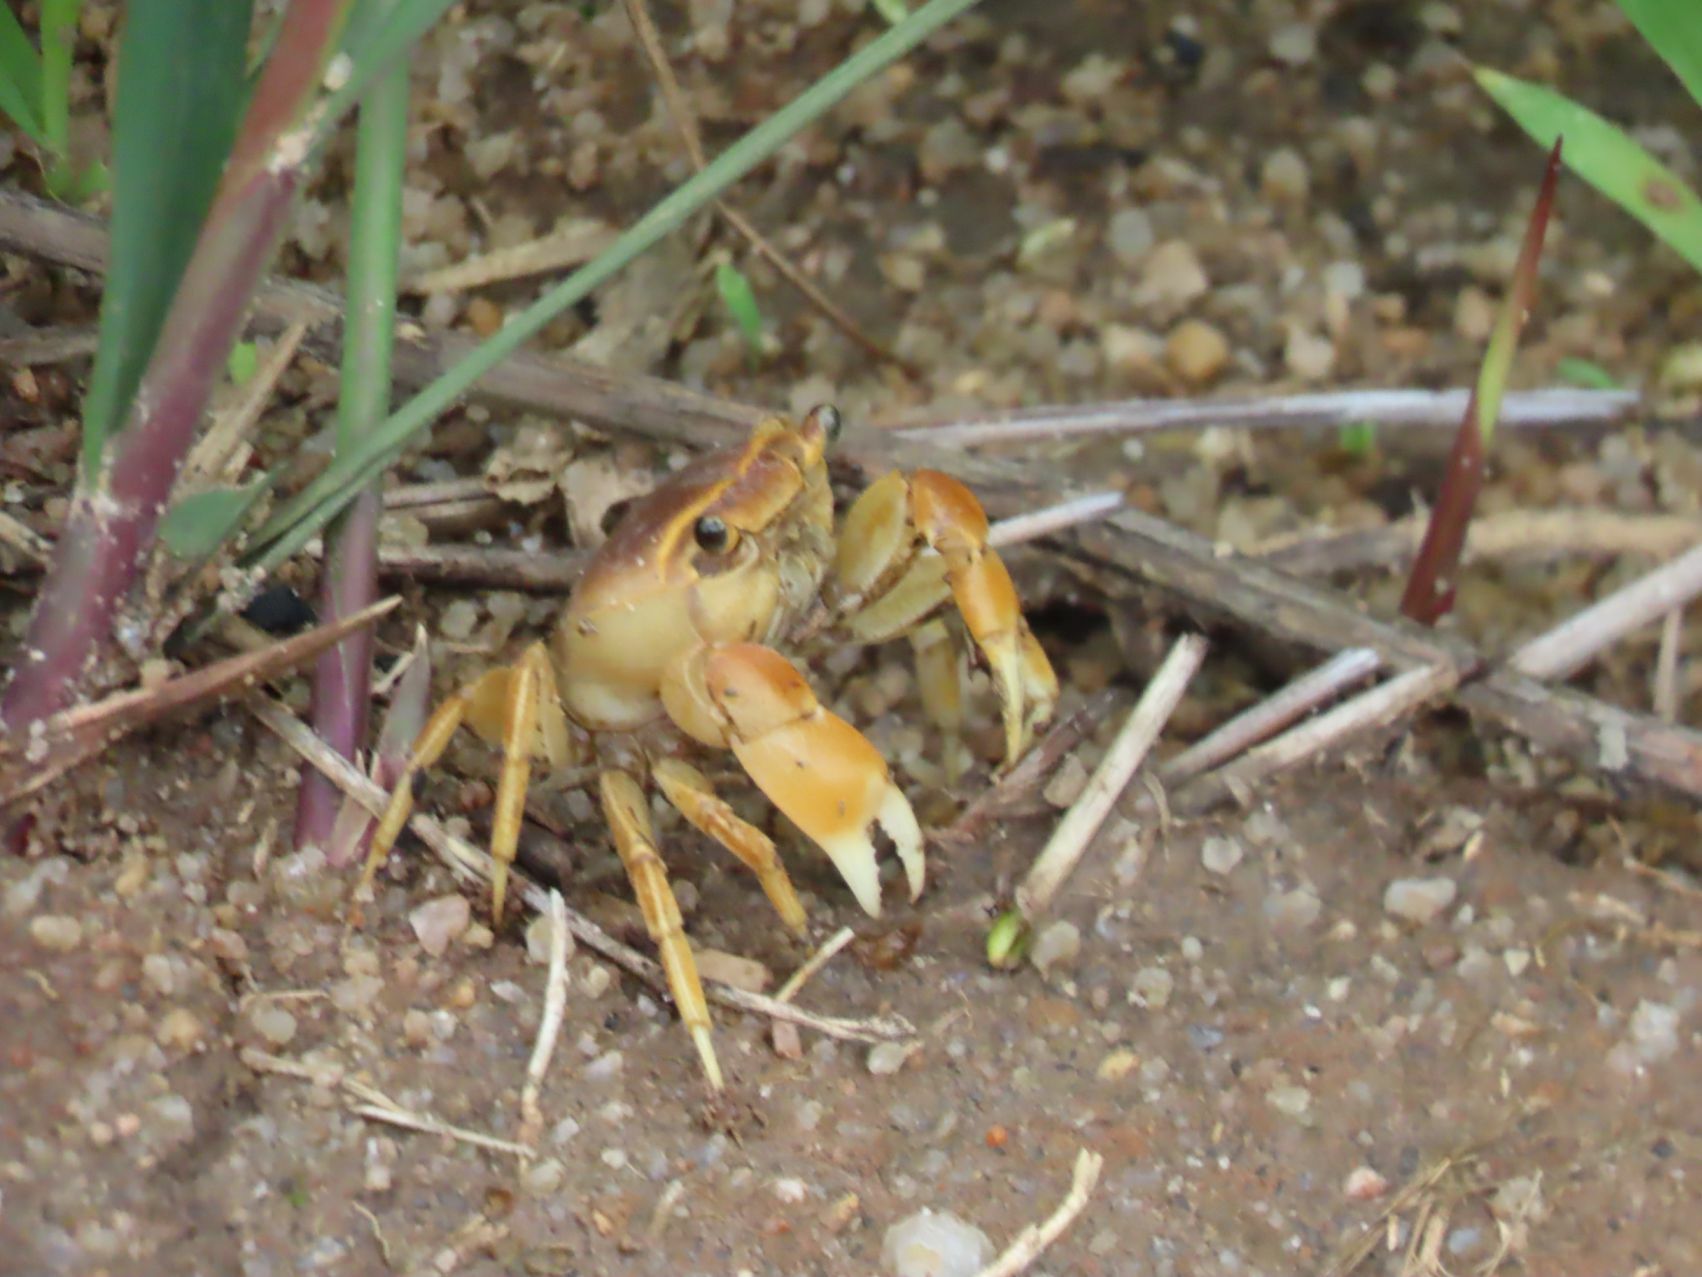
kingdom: Animalia
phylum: Arthropoda
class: Malacostraca
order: Decapoda
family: Potamonautidae
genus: Potamonautes
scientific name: Potamonautes mariepskoppie
